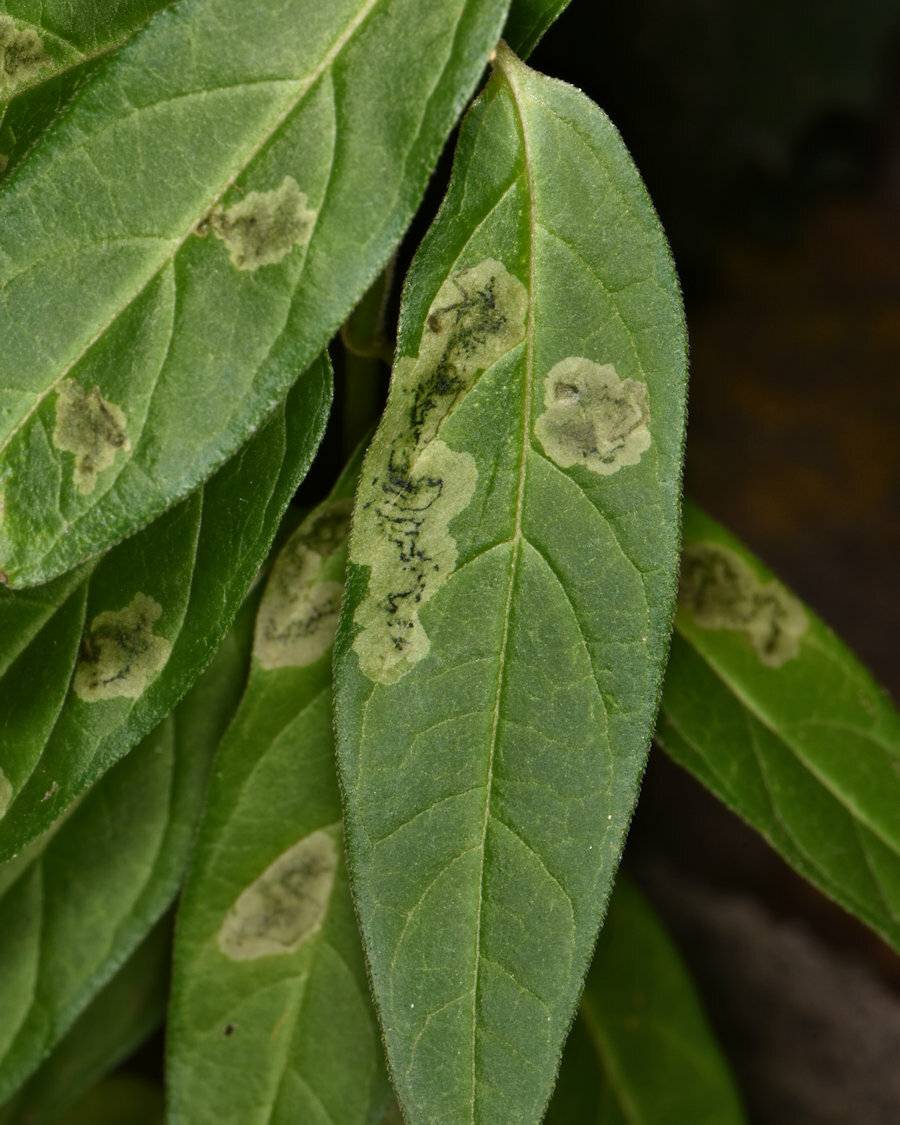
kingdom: Animalia
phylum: Arthropoda
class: Insecta
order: Diptera
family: Agromyzidae
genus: Liriomyza
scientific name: Liriomyza asclepiadis
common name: Milkweed leaf-miner fly
